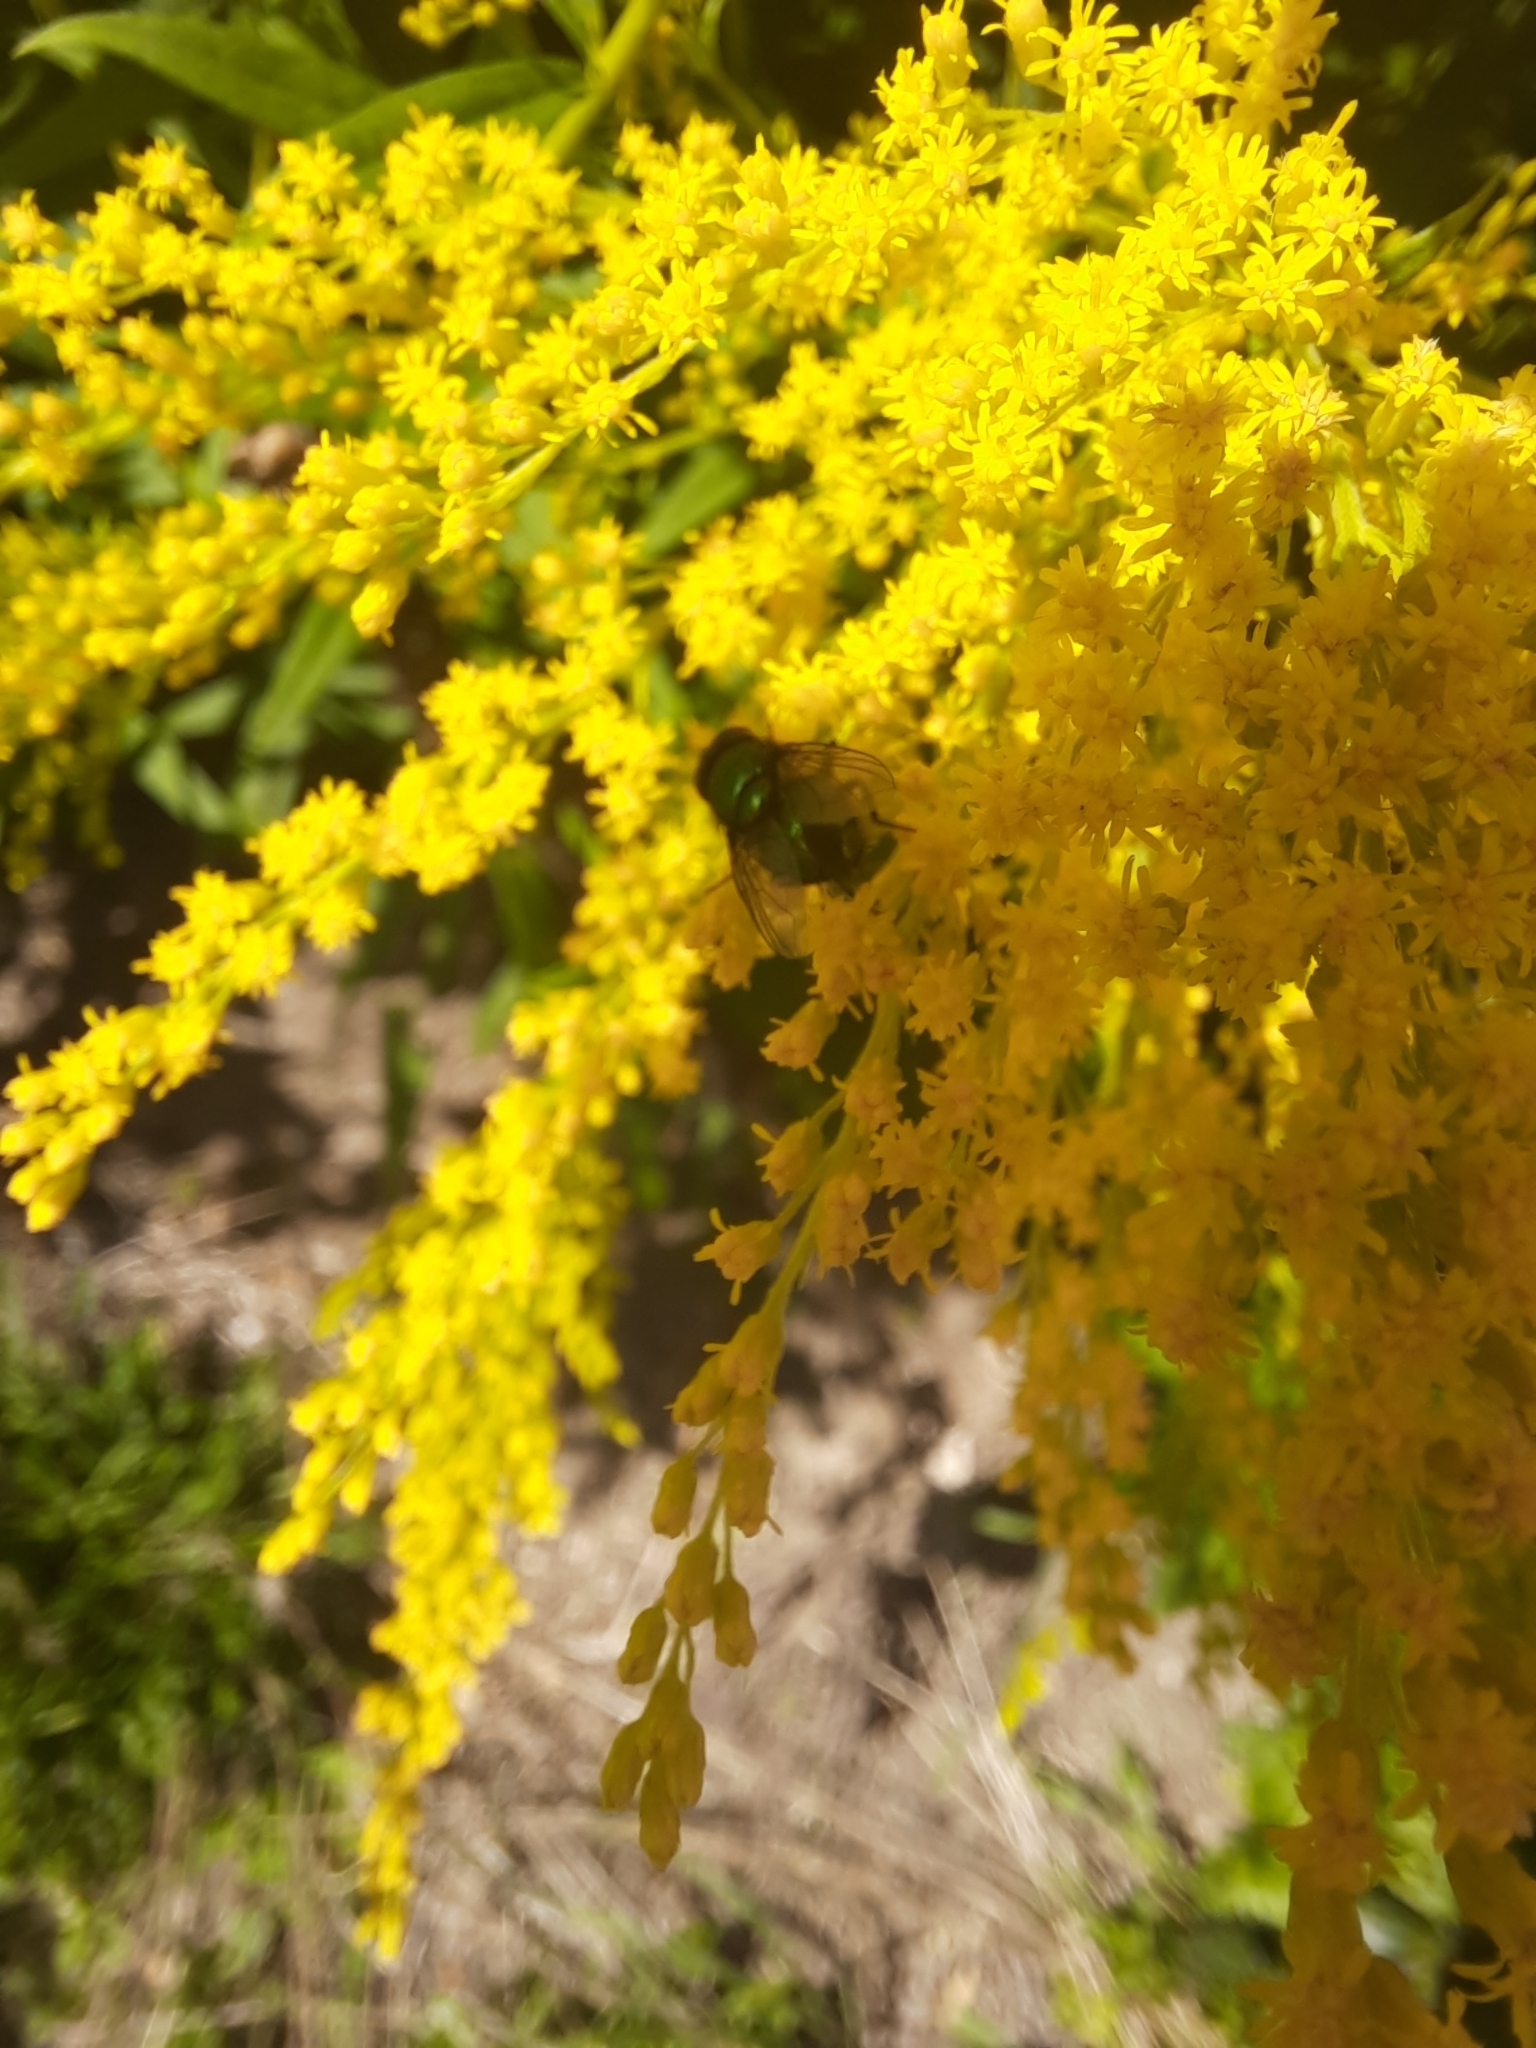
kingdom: Animalia
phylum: Arthropoda
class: Insecta
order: Diptera
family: Calliphoridae
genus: Lucilia
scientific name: Lucilia
